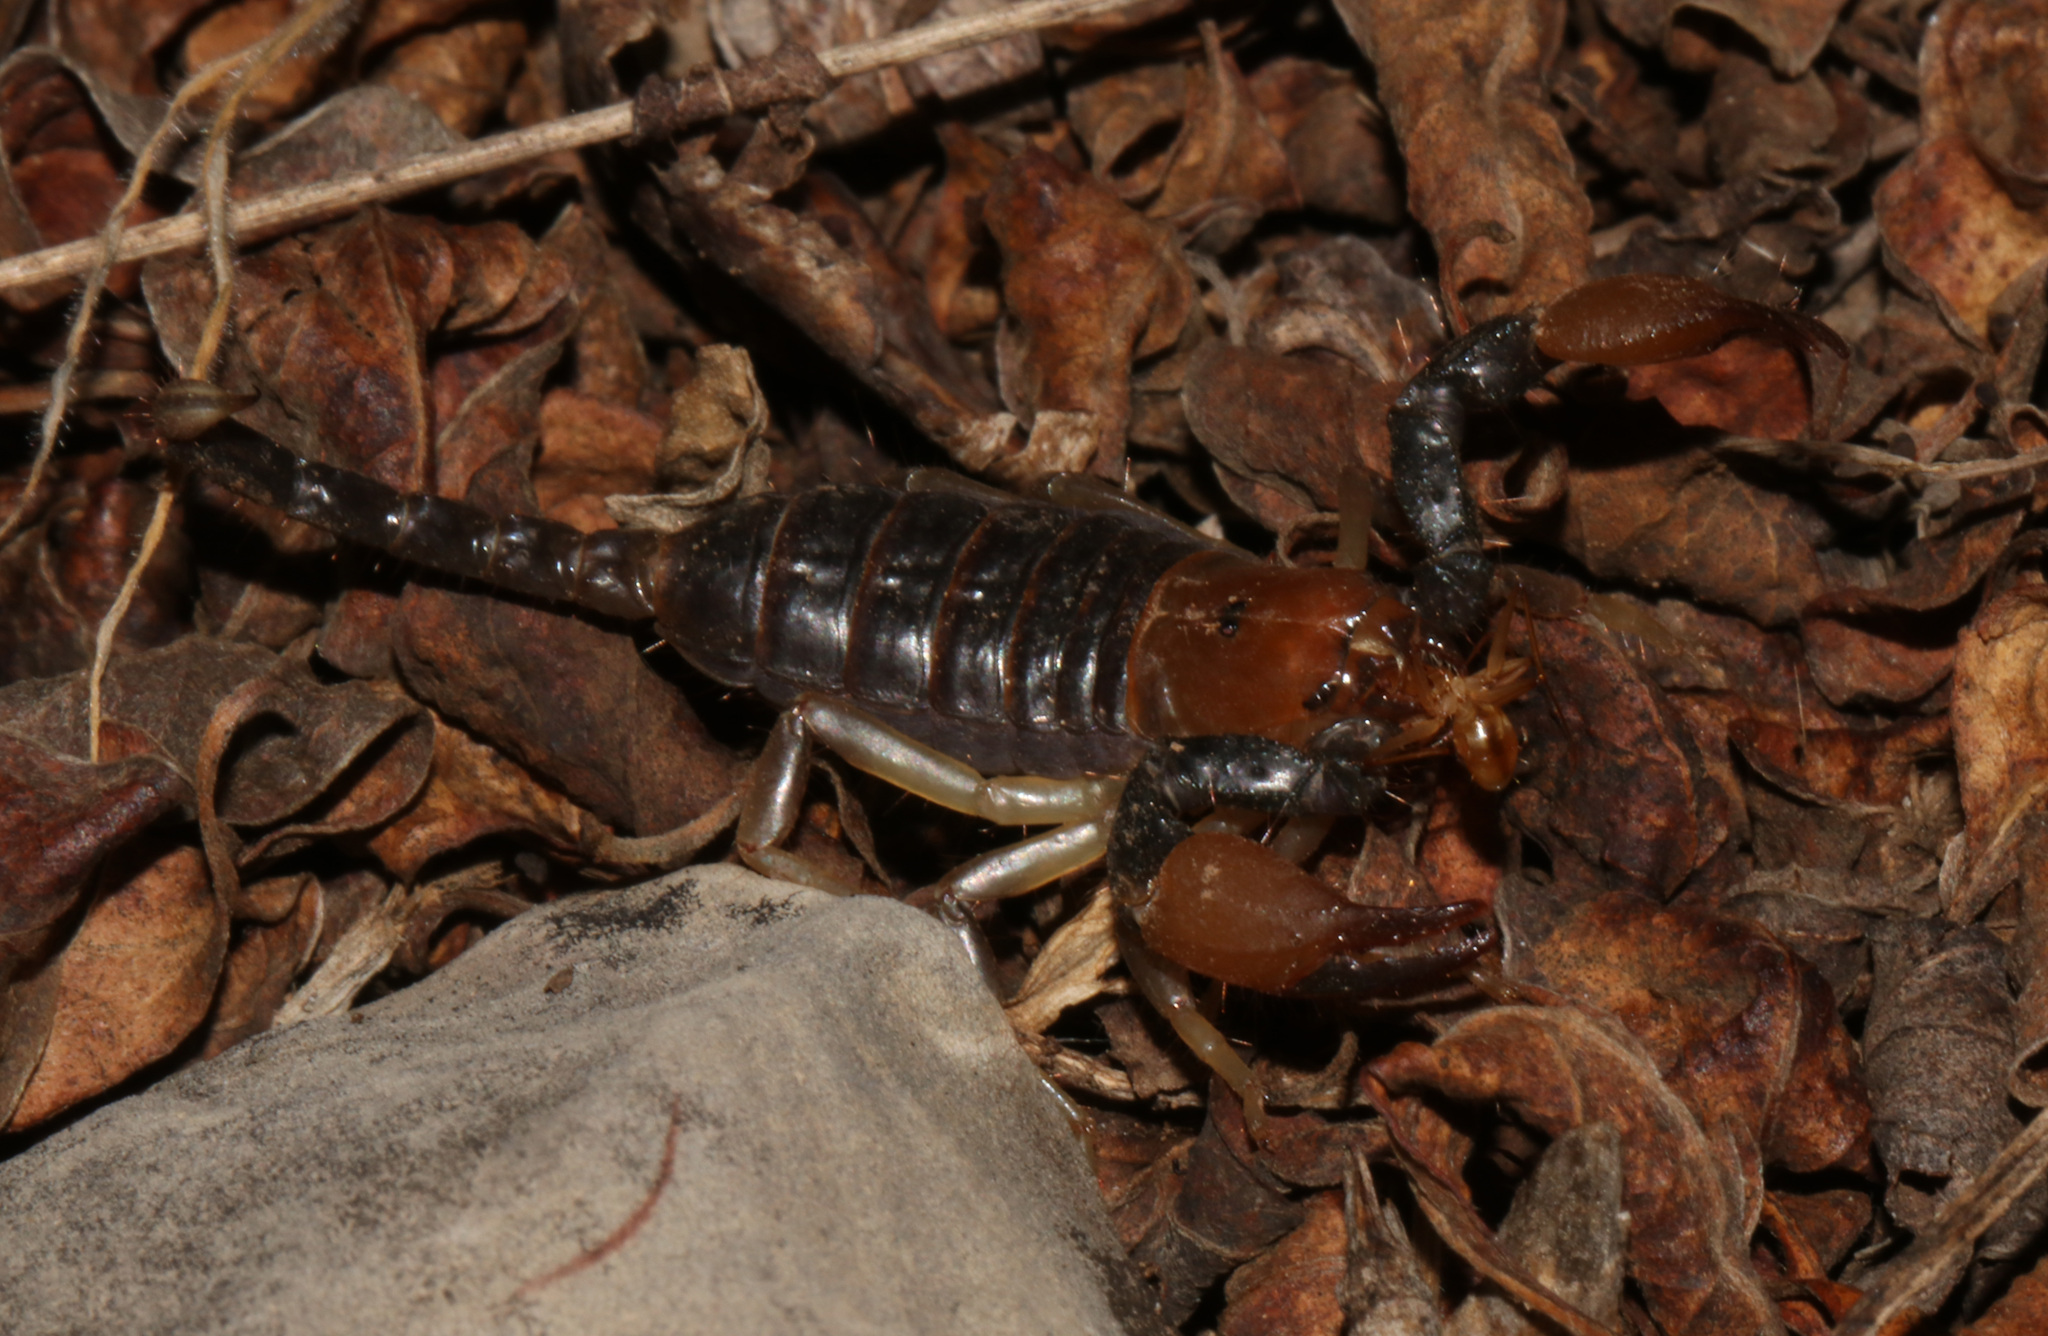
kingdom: Animalia
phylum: Arthropoda
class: Arachnida
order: Scorpiones
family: Scorpionidae
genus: Opistophthalmus
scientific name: Opistophthalmus carinatus
